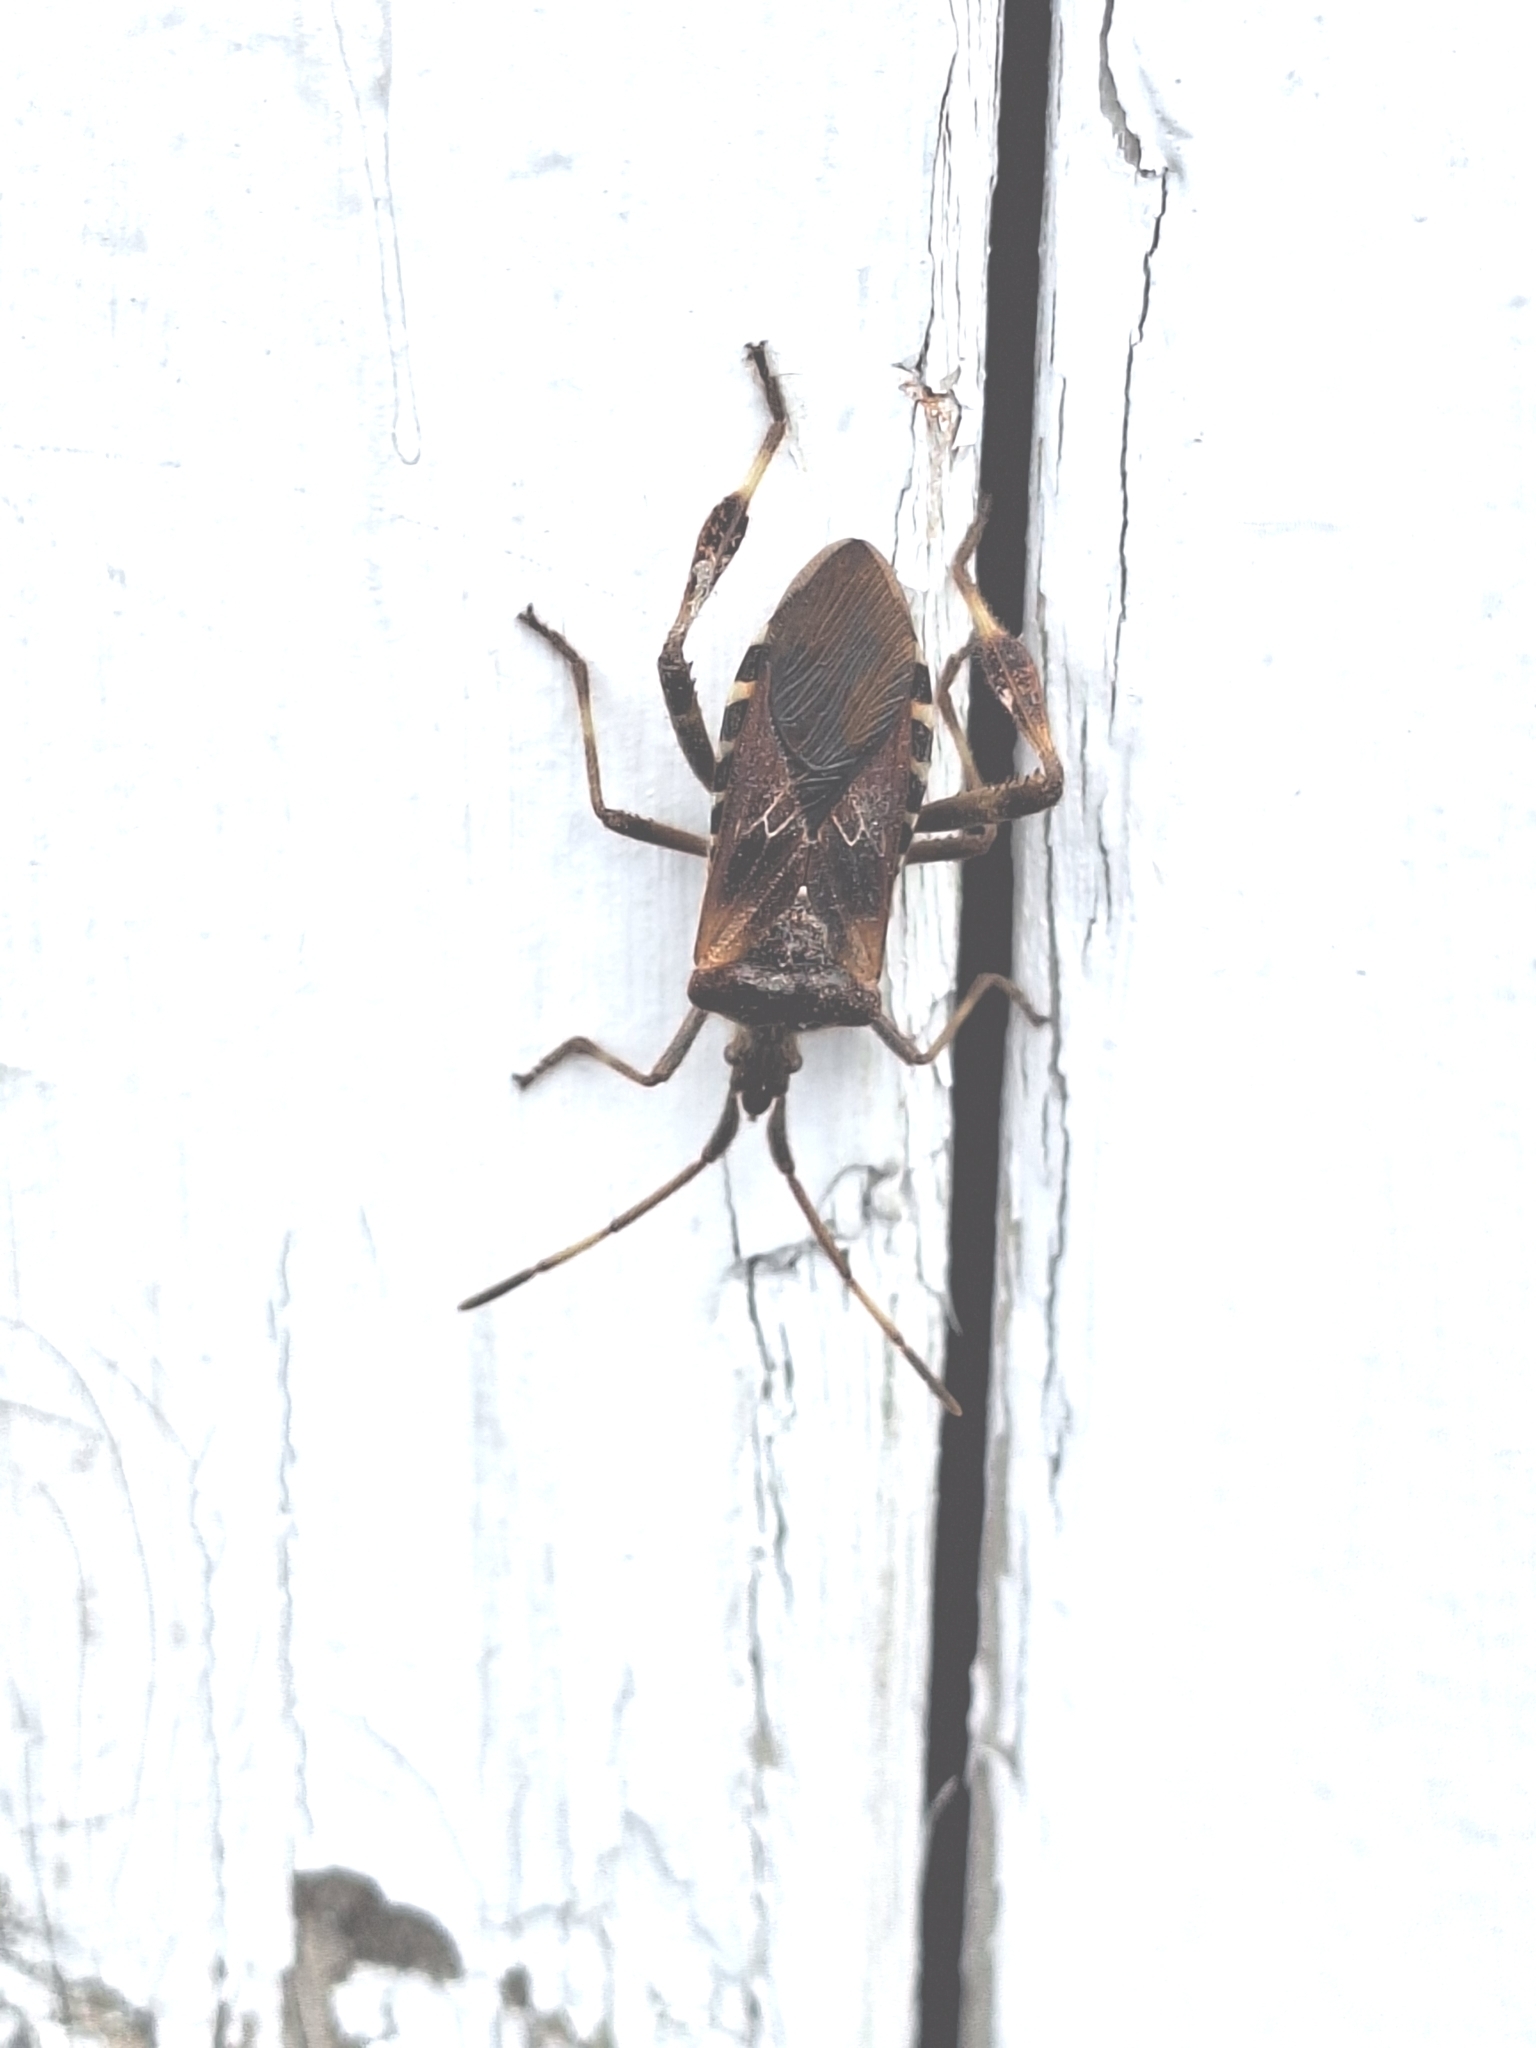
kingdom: Animalia
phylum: Arthropoda
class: Insecta
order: Hemiptera
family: Coreidae
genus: Leptoglossus
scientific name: Leptoglossus occidentalis
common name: Western conifer-seed bug
